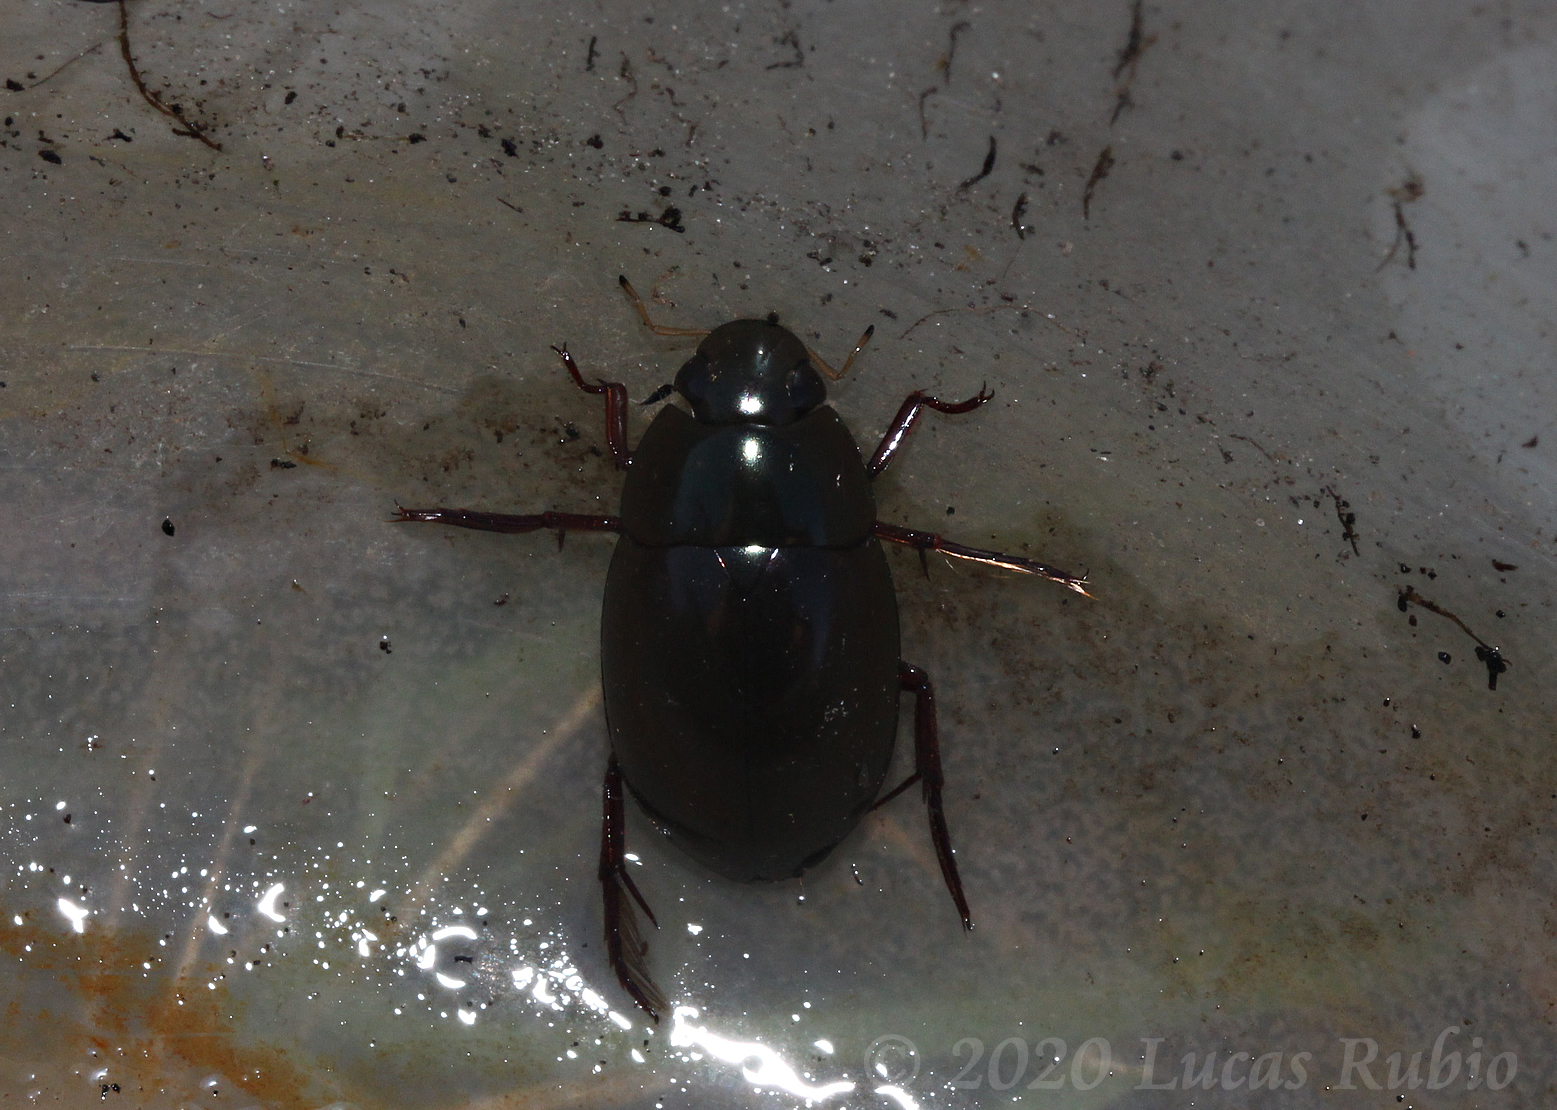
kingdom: Animalia
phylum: Arthropoda
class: Insecta
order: Coleoptera
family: Hydrophilidae
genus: Tropisternus
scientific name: Tropisternus latus
